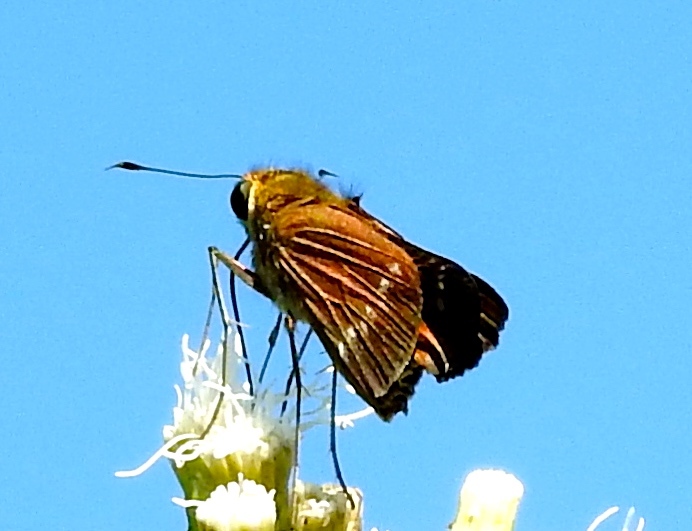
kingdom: Animalia
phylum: Arthropoda
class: Insecta
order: Lepidoptera
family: Hesperiidae
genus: Turesis
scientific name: Turesis lucas
